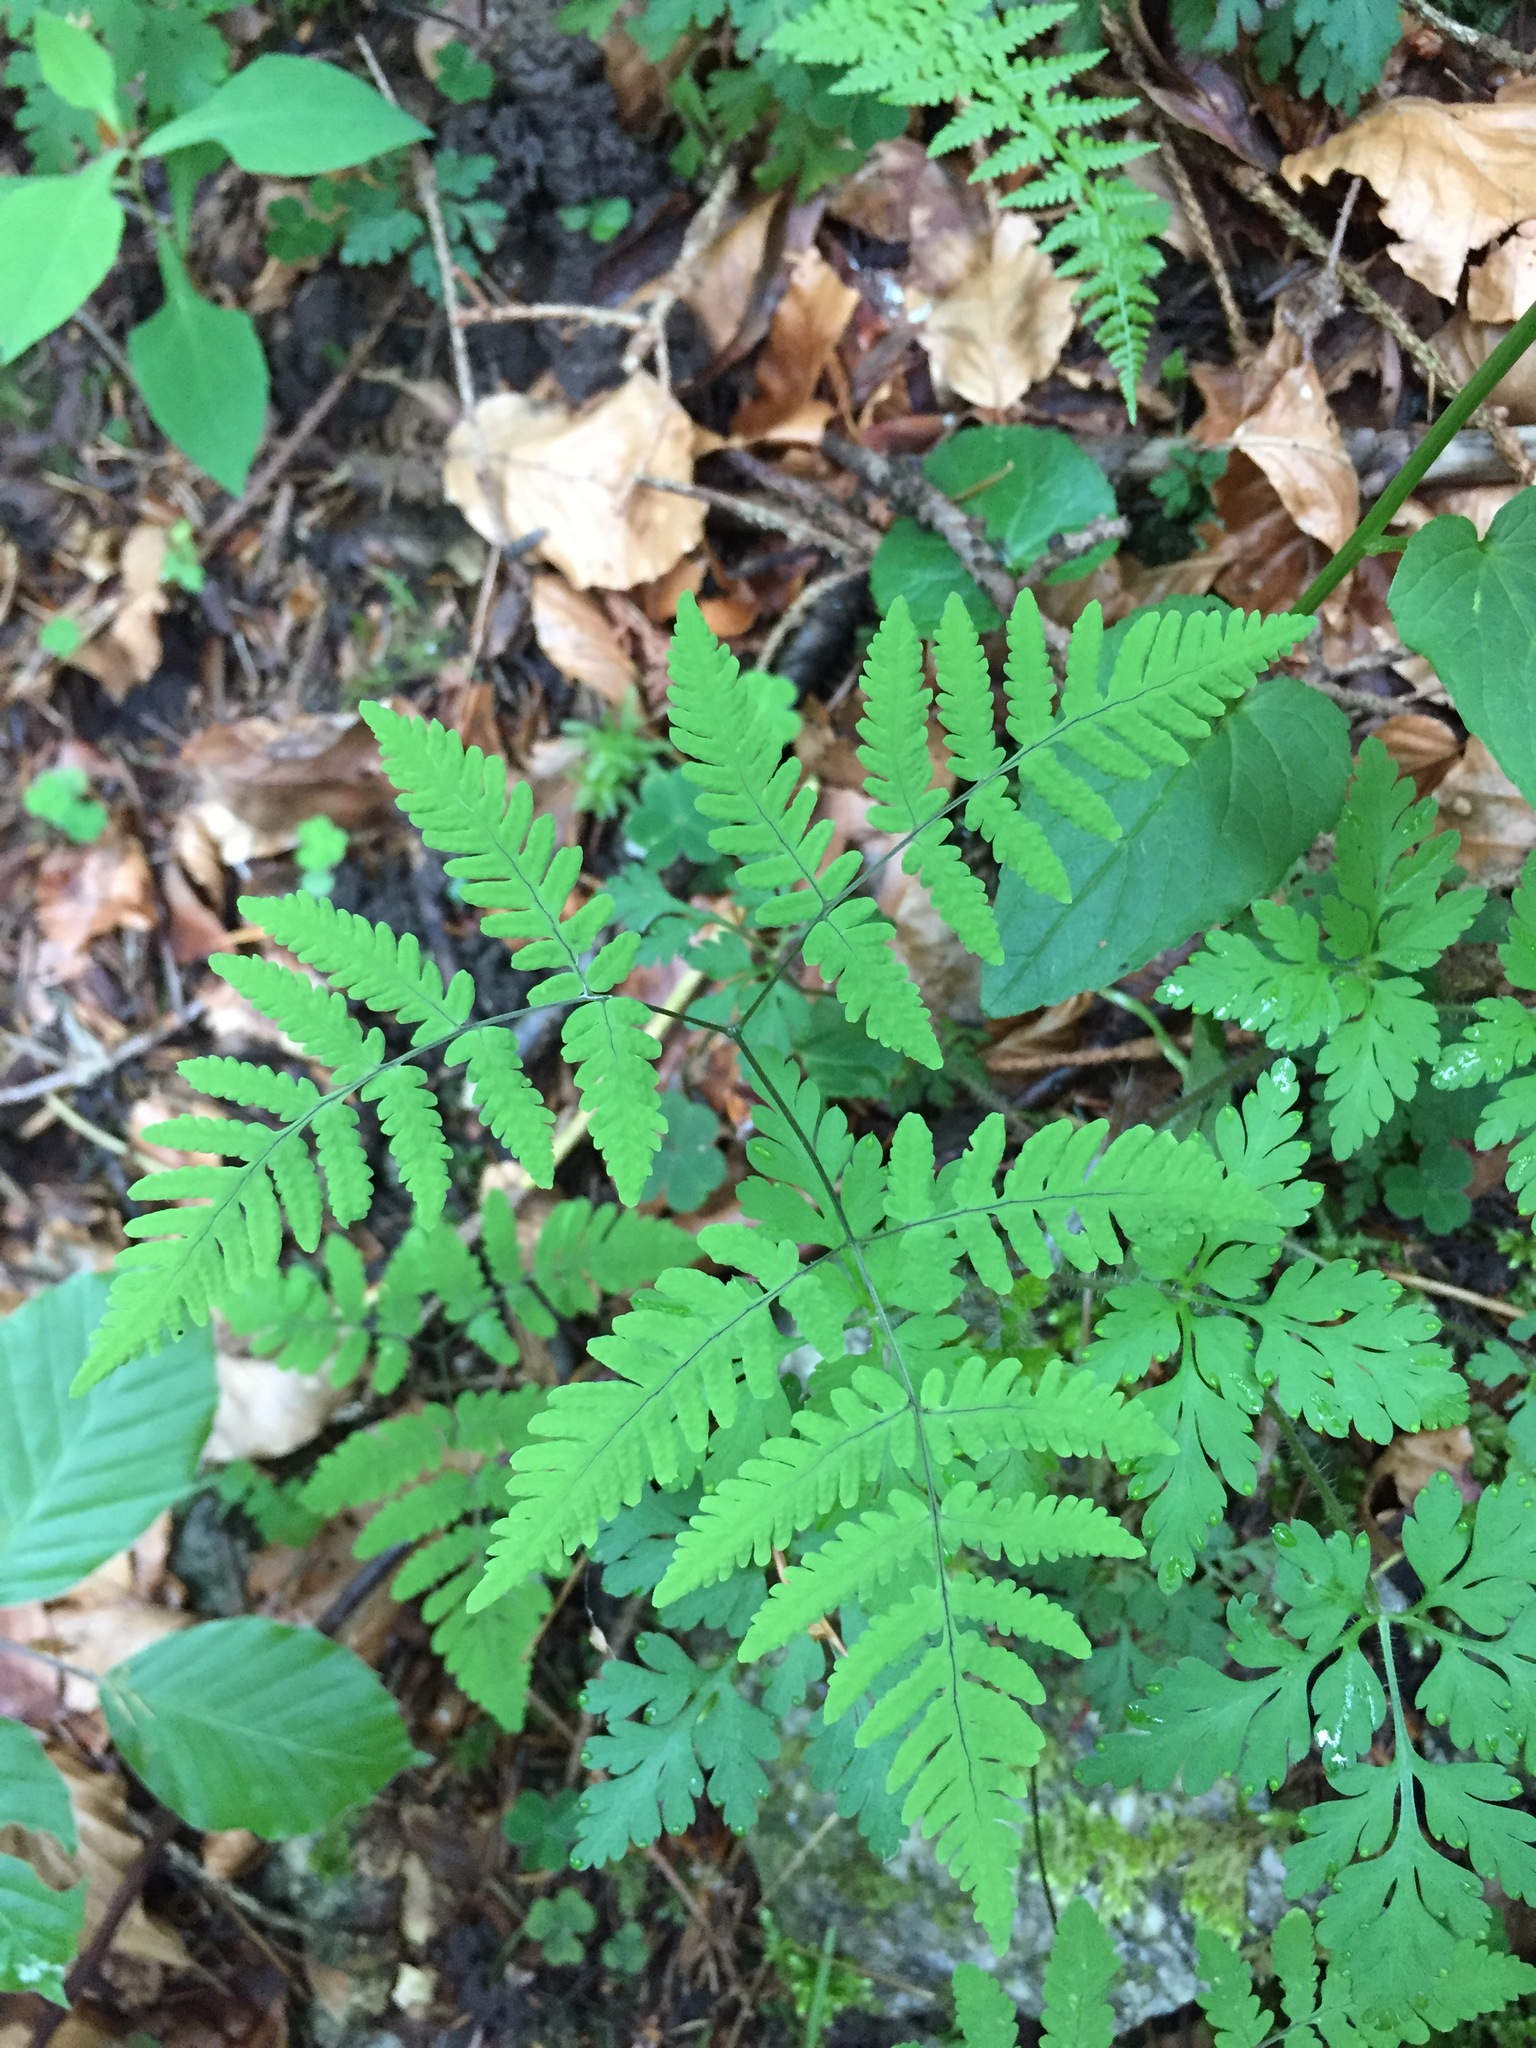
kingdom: Plantae
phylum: Tracheophyta
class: Polypodiopsida
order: Polypodiales
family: Cystopteridaceae
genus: Gymnocarpium
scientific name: Gymnocarpium dryopteris
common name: Oak fern
